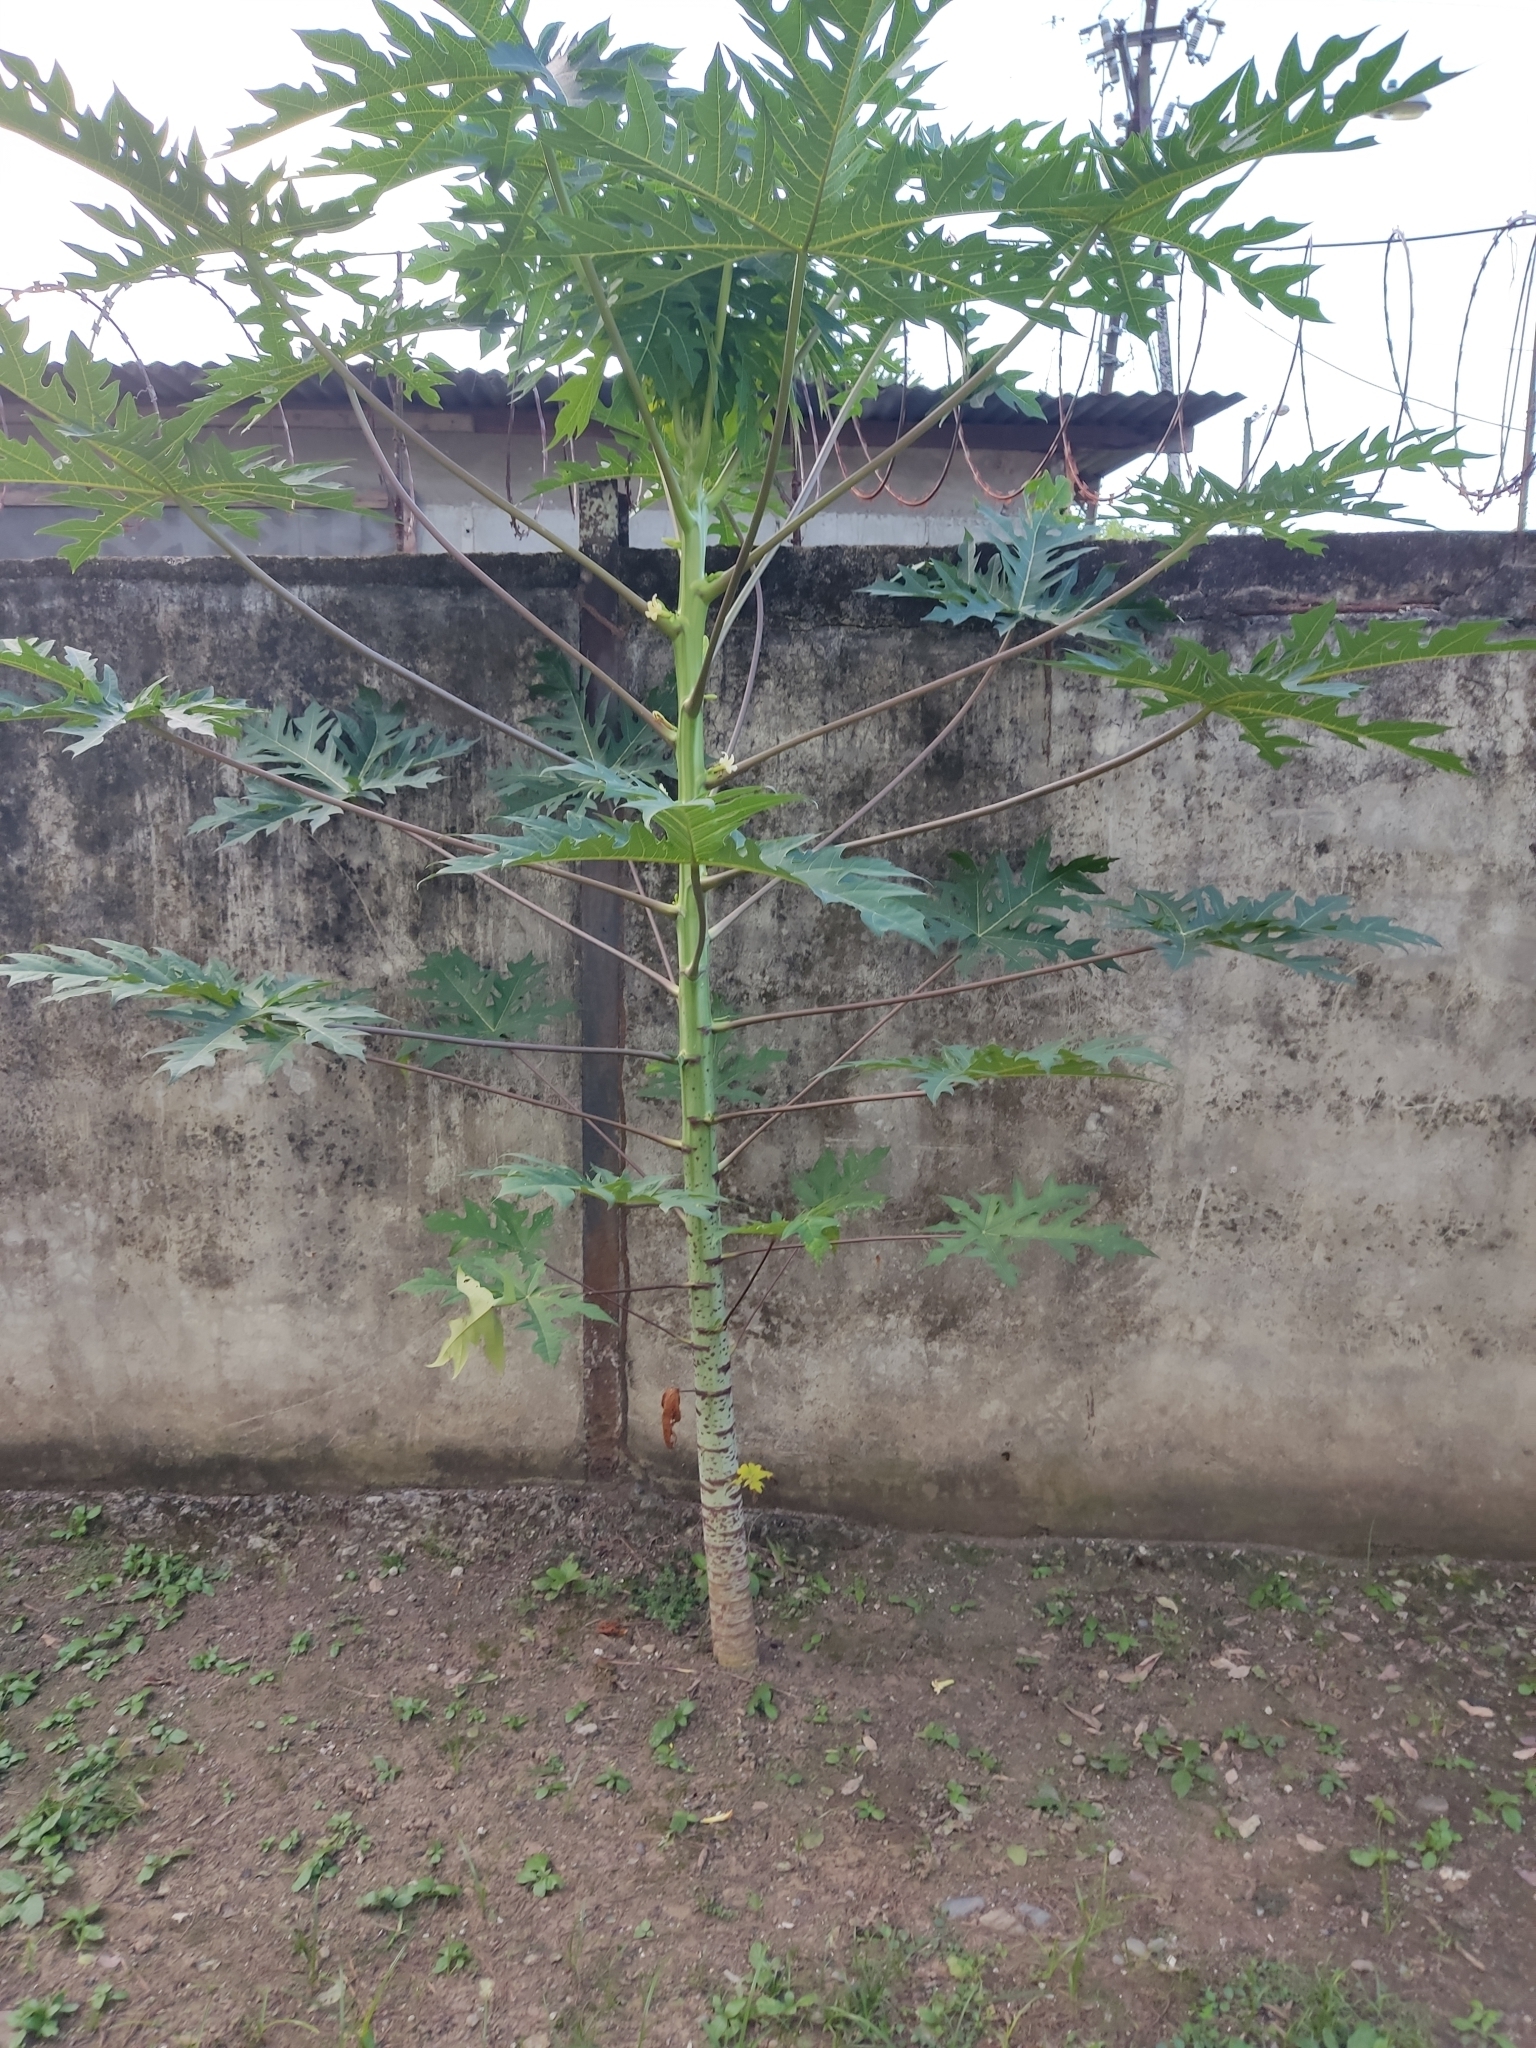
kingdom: Plantae
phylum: Tracheophyta
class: Magnoliopsida
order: Brassicales
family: Caricaceae
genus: Carica
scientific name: Carica papaya
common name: Papaya
